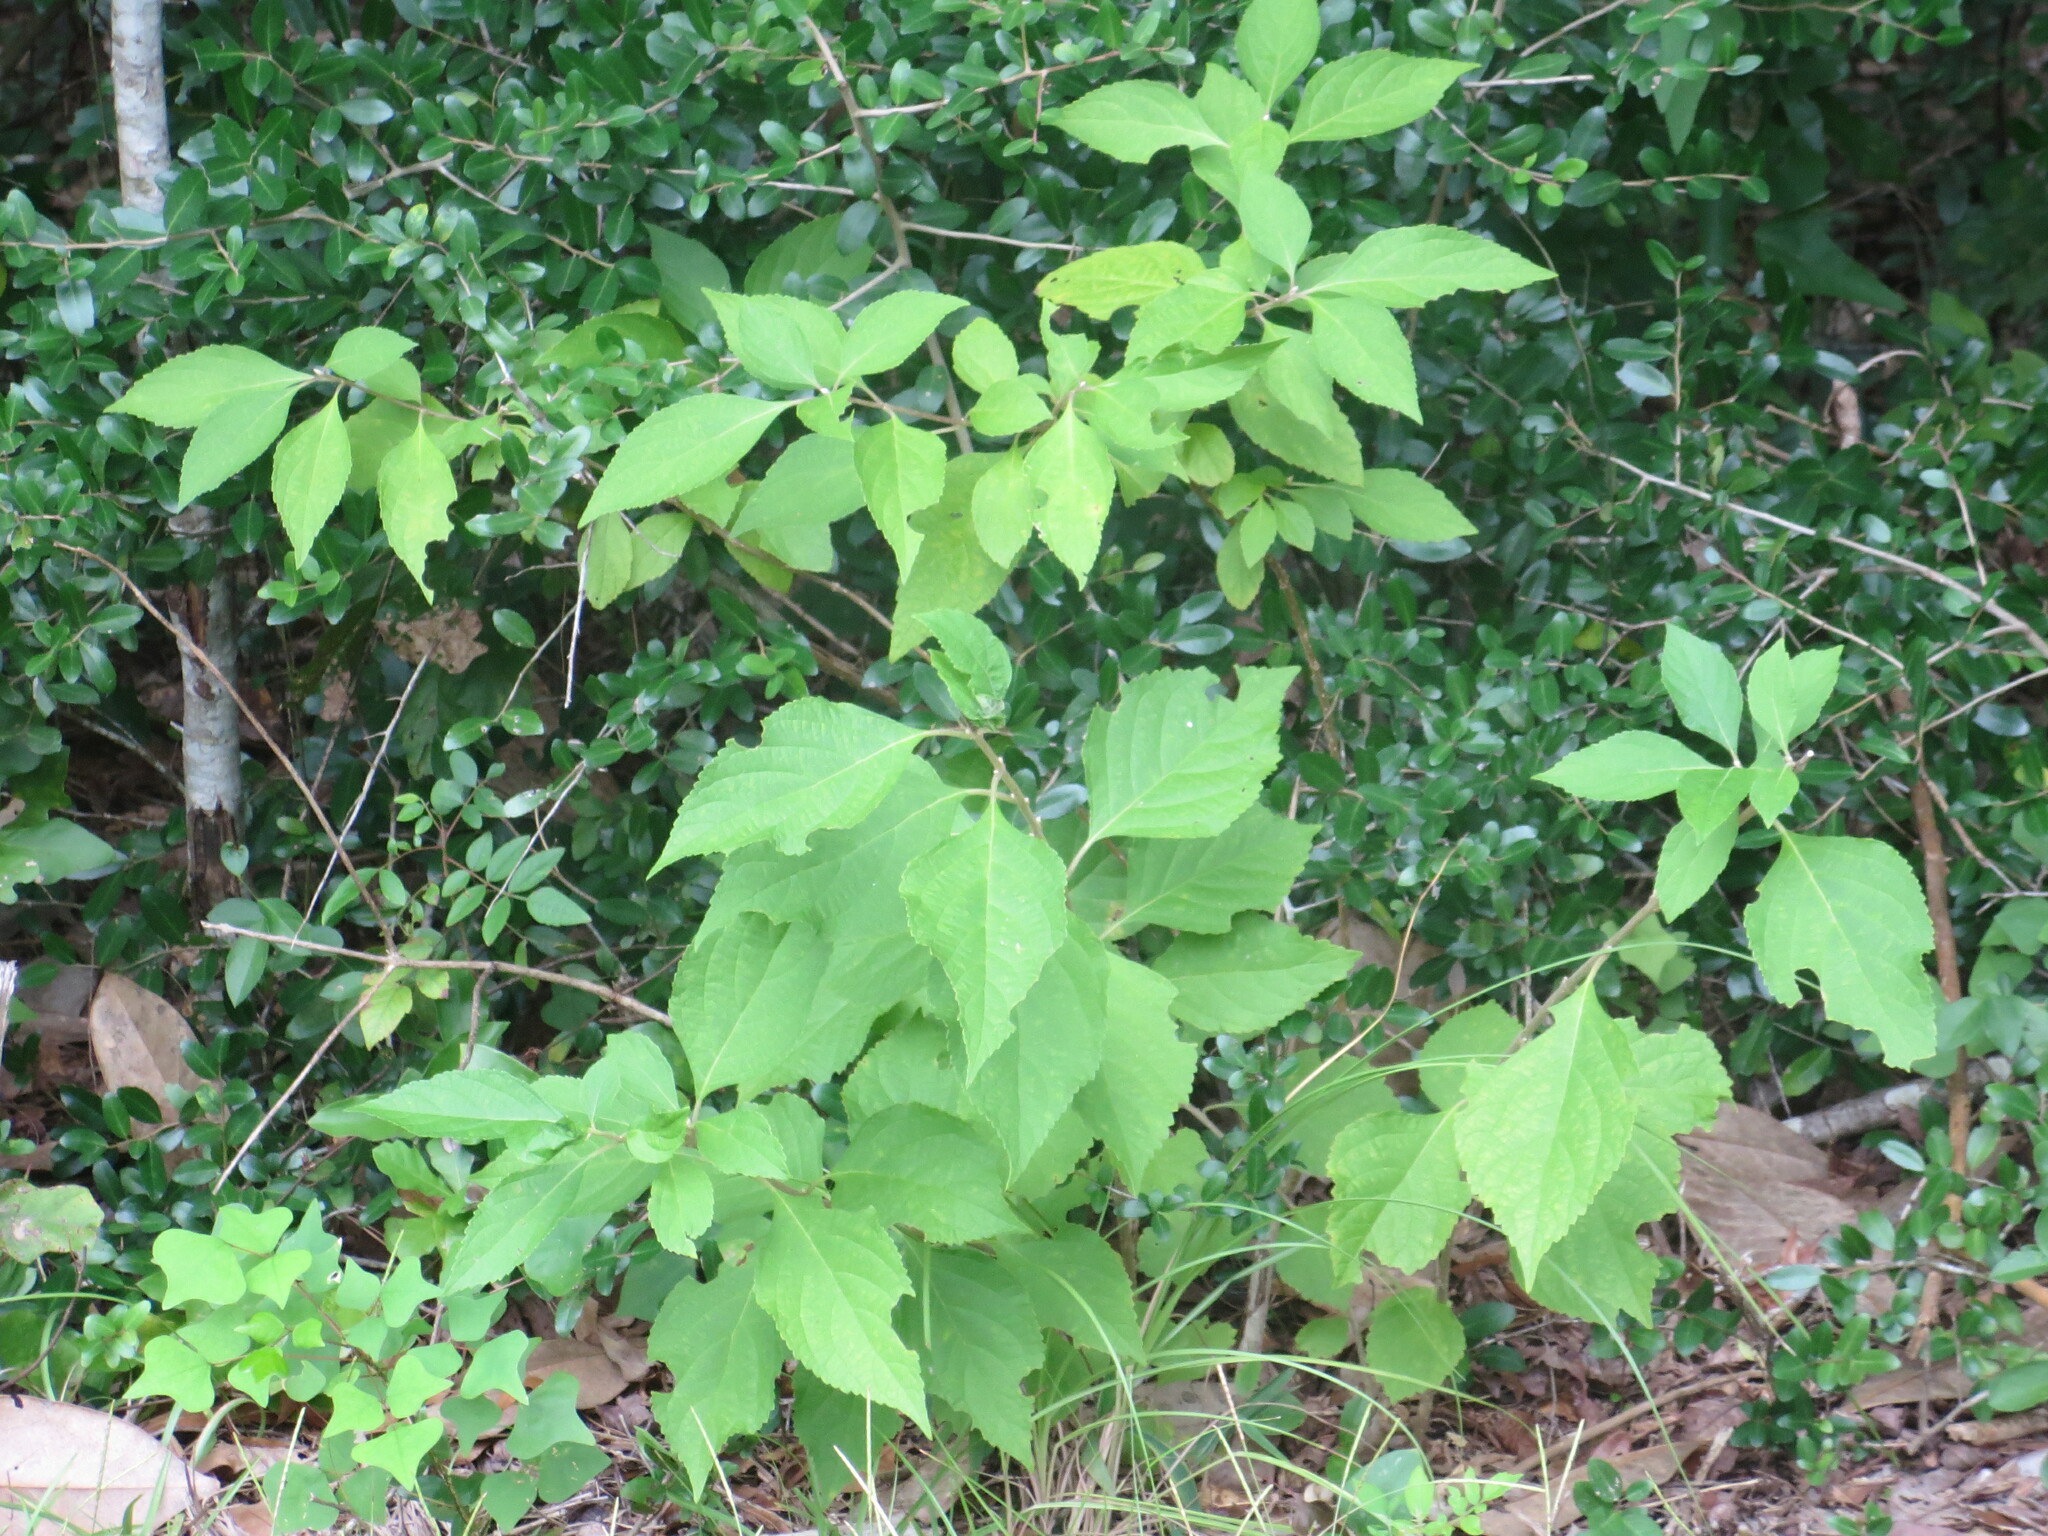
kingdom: Plantae
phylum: Tracheophyta
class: Magnoliopsida
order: Lamiales
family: Lamiaceae
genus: Callicarpa
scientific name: Callicarpa americana
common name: American beautyberry
